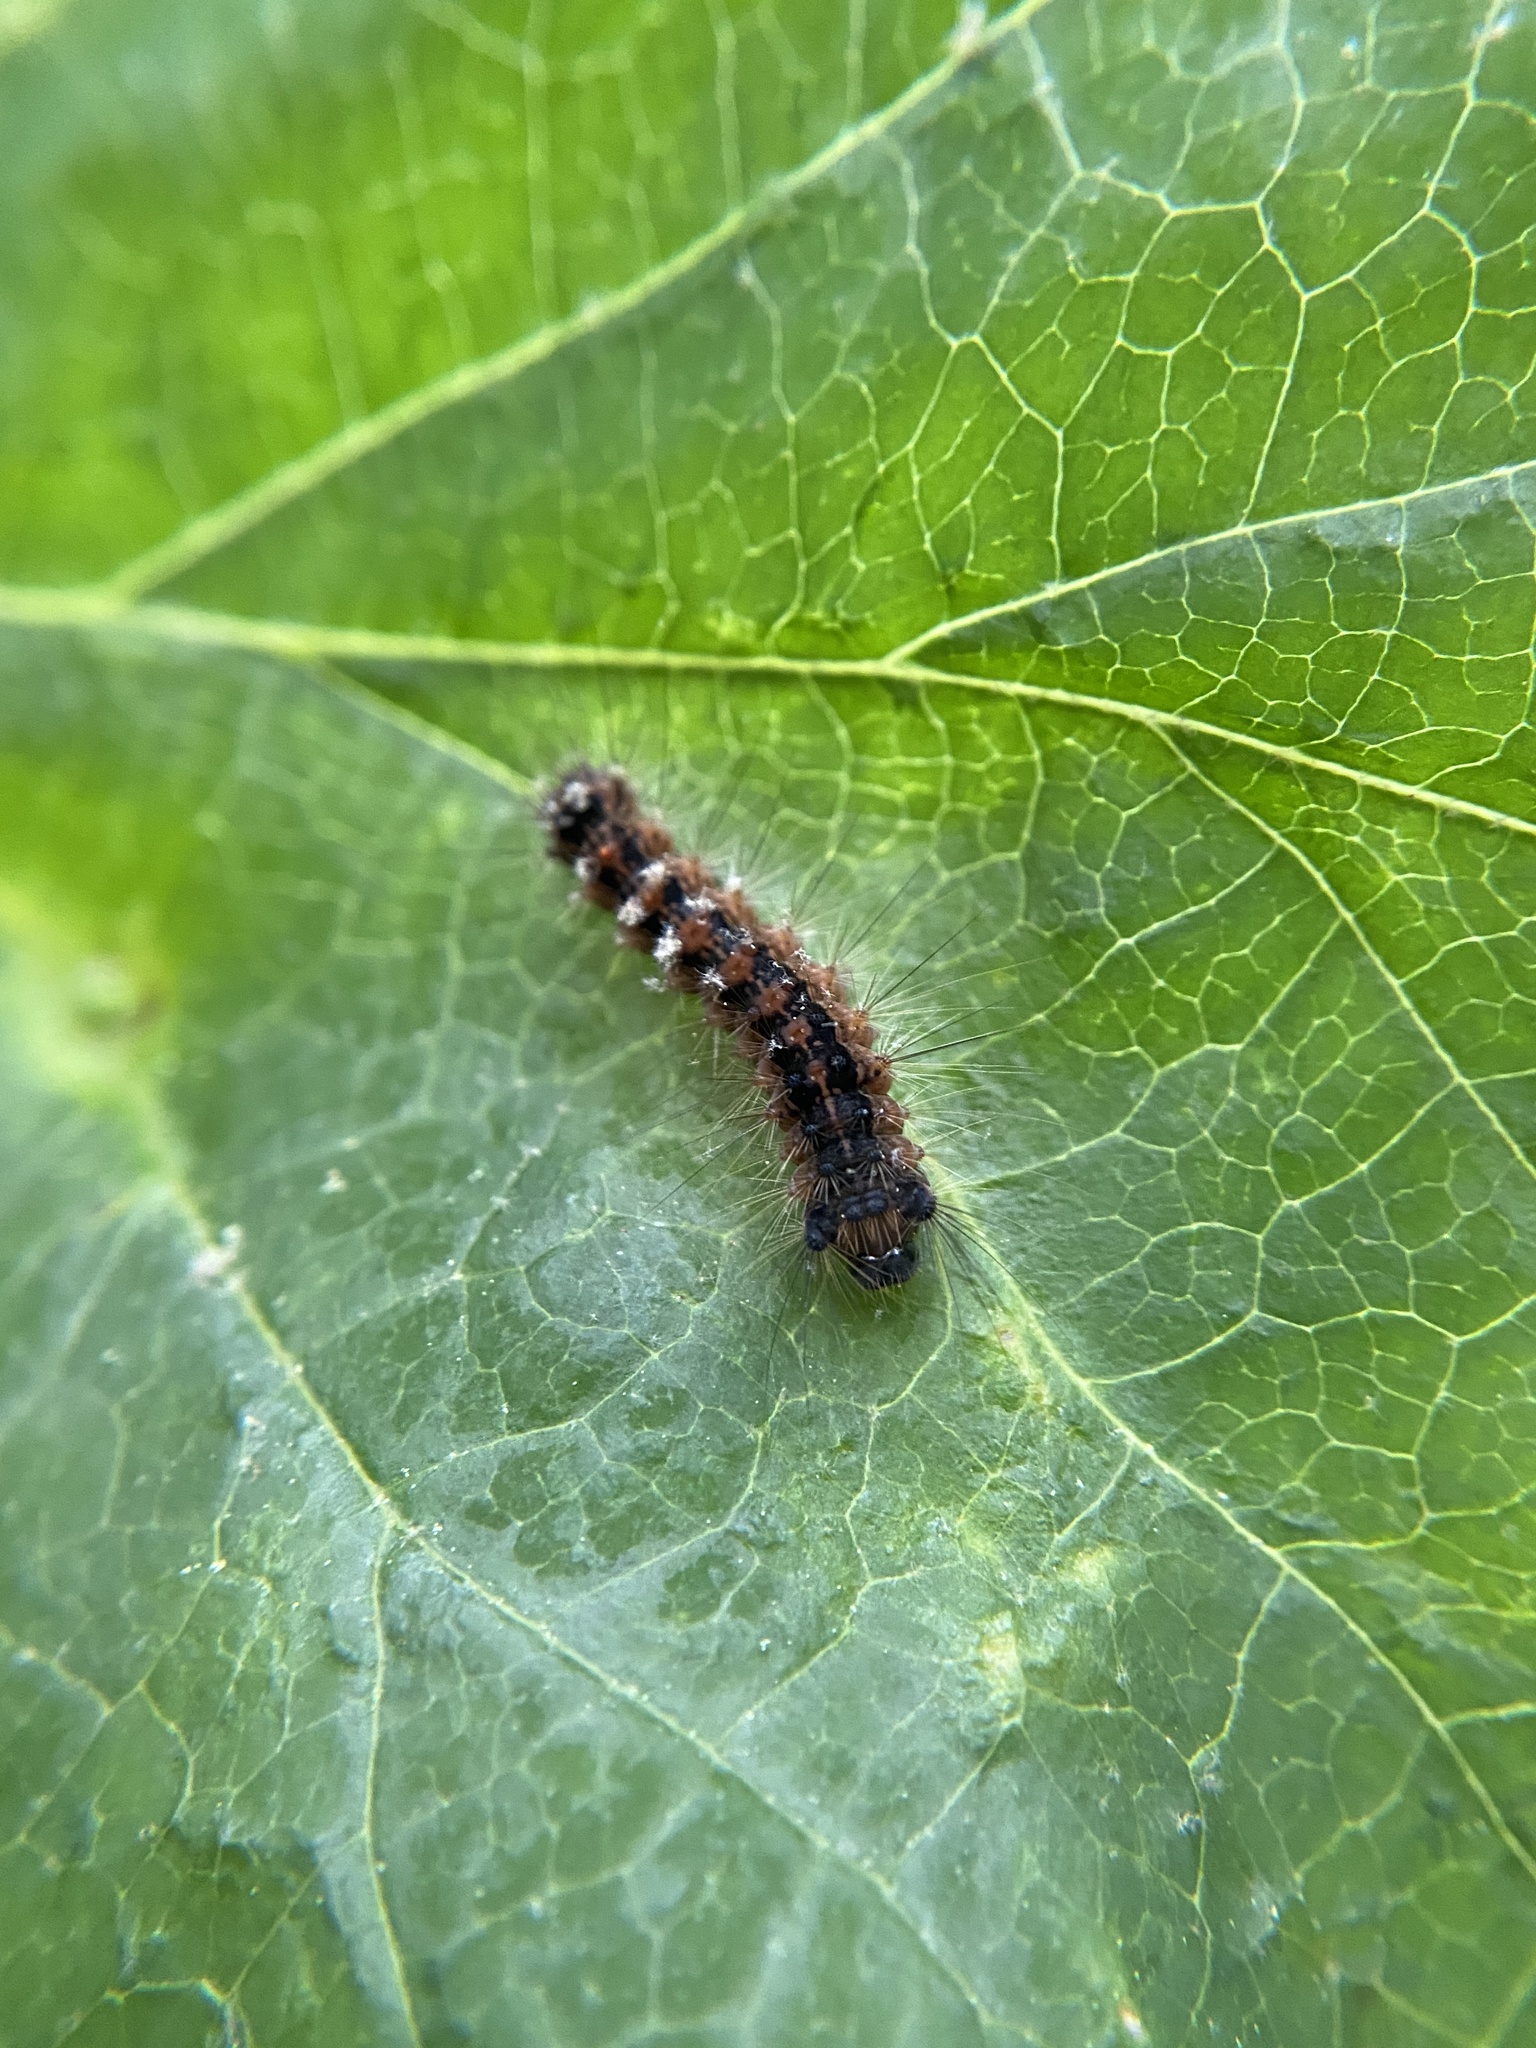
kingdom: Animalia
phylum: Arthropoda
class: Insecta
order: Lepidoptera
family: Erebidae
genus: Lymantria
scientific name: Lymantria dispar
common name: Gypsy moth
